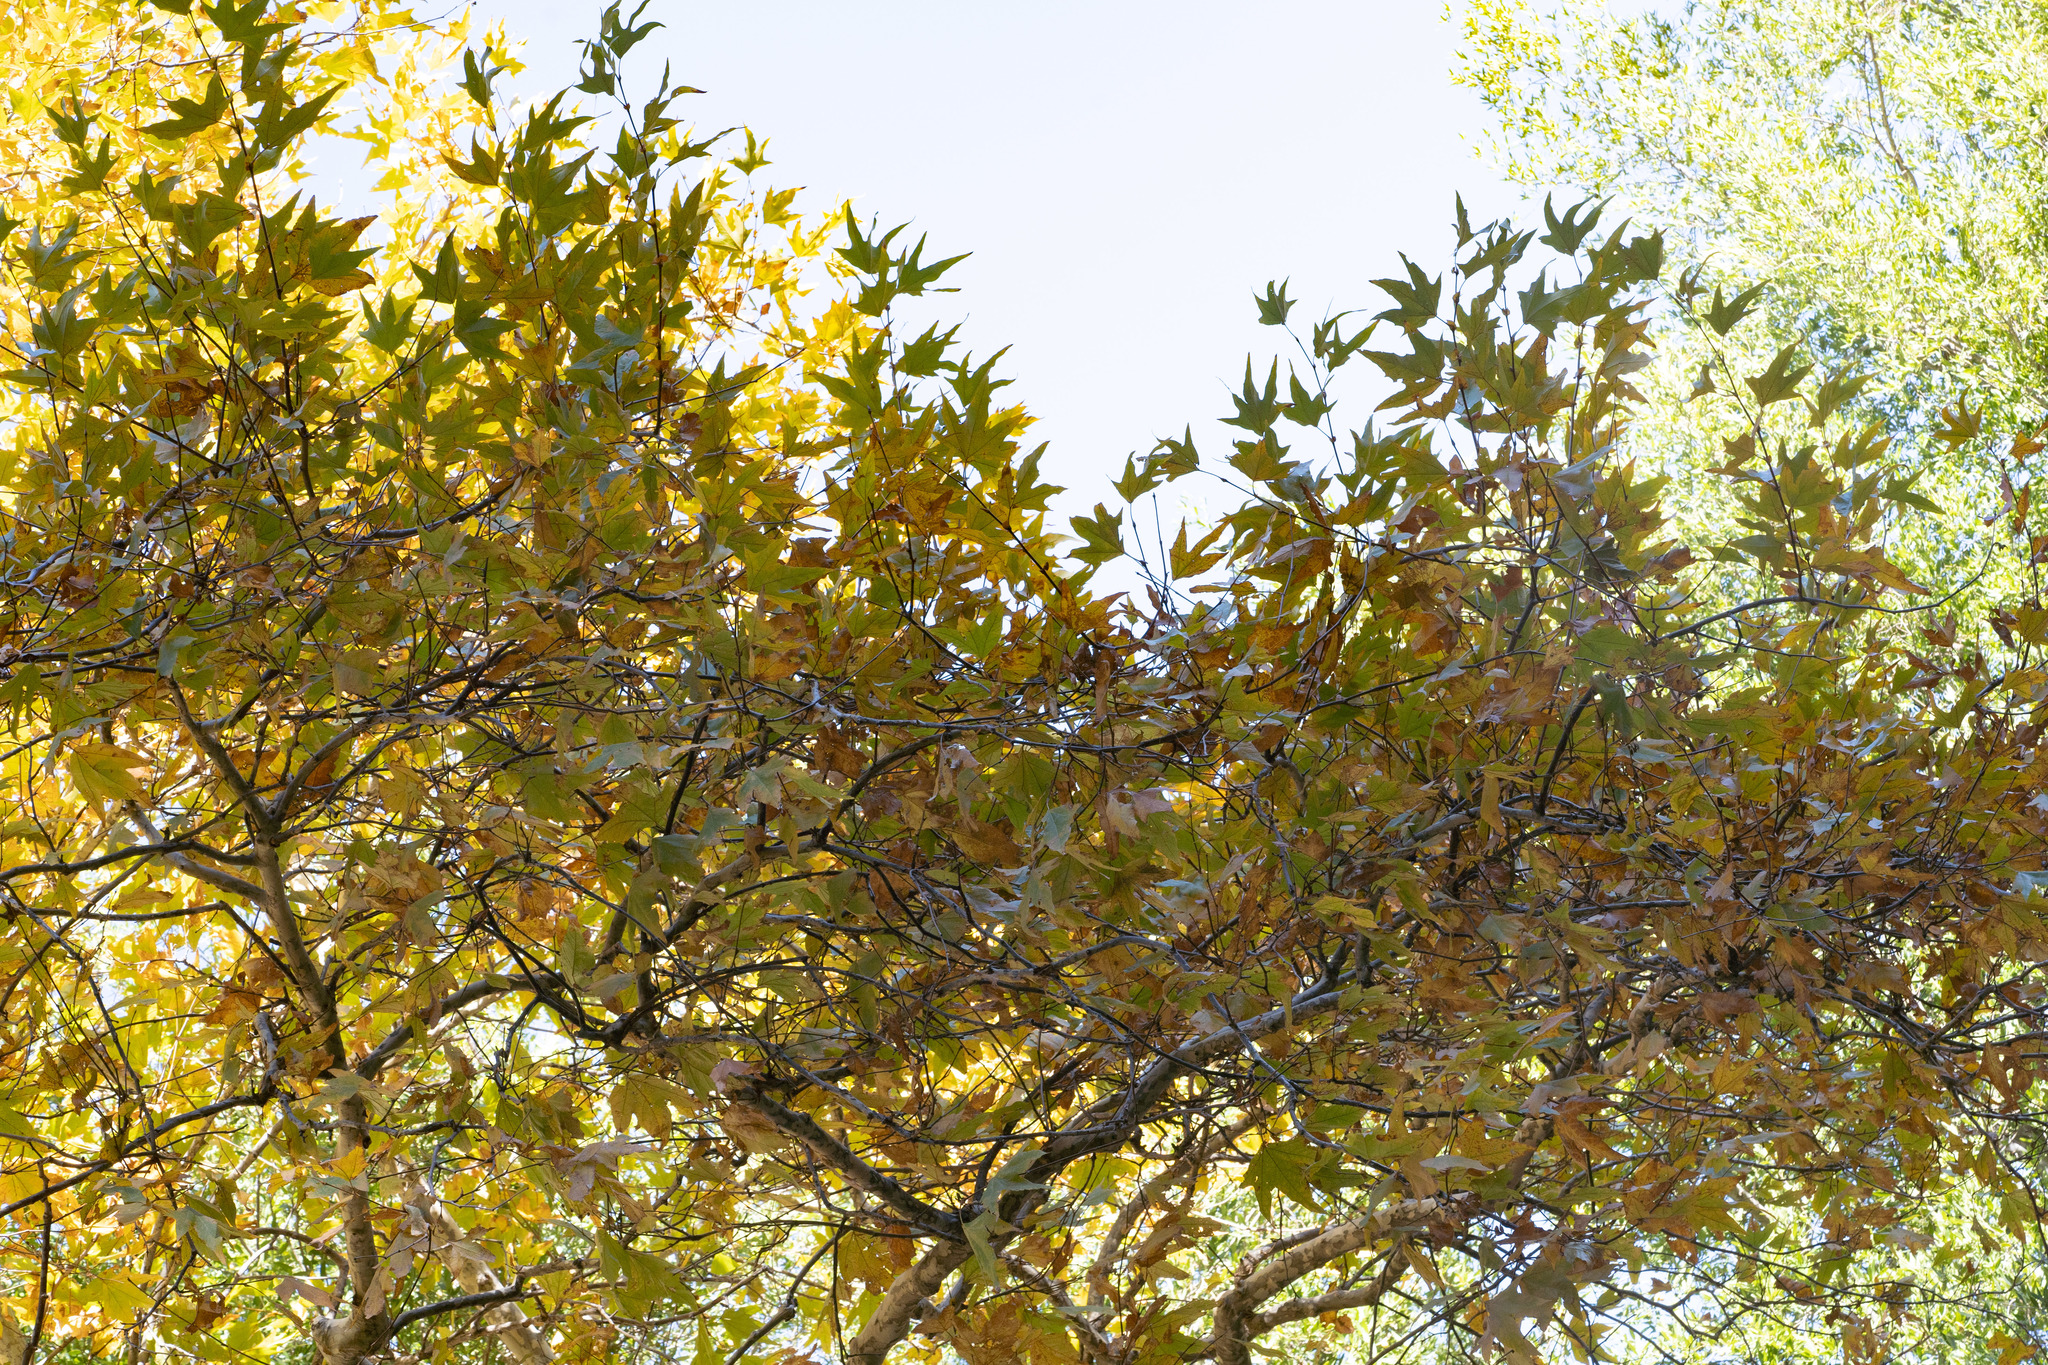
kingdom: Plantae
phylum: Tracheophyta
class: Magnoliopsida
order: Proteales
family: Platanaceae
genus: Platanus
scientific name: Platanus racemosa
